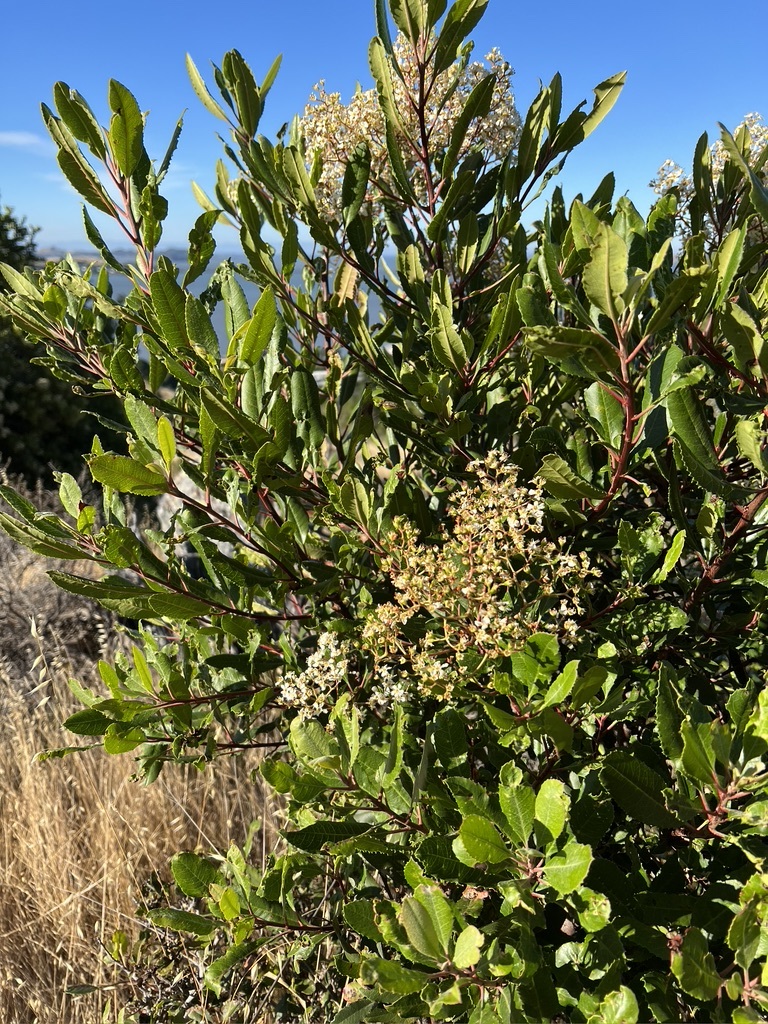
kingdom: Plantae
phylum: Tracheophyta
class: Magnoliopsida
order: Rosales
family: Rosaceae
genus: Heteromeles
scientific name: Heteromeles arbutifolia
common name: California-holly
